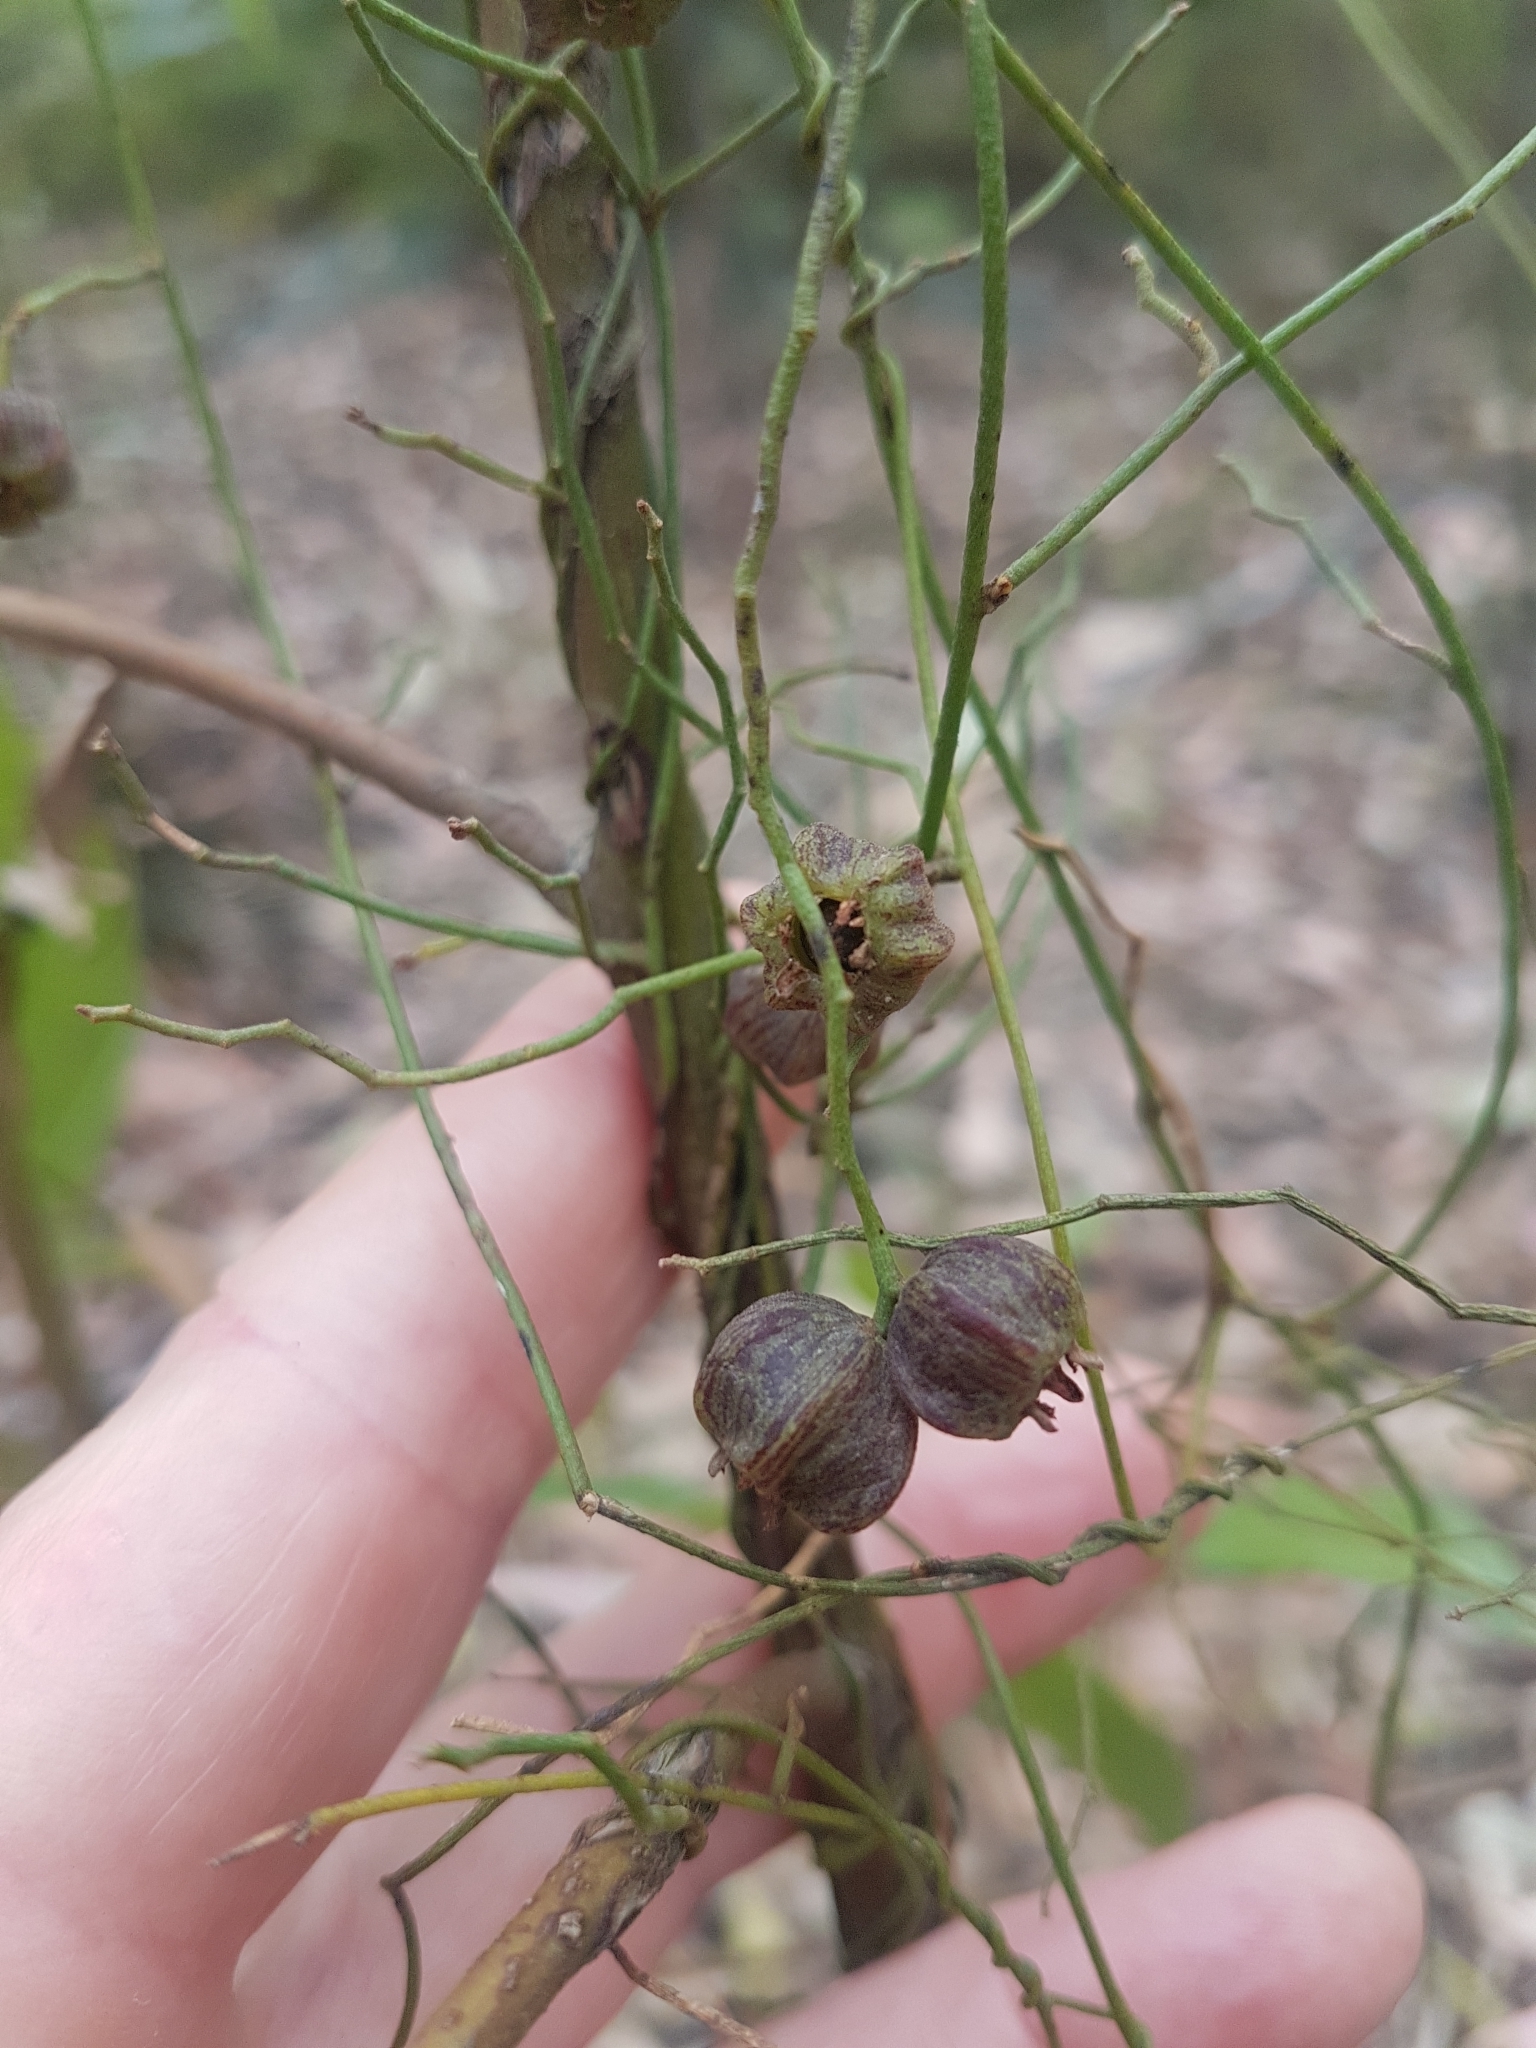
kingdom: Plantae
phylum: Tracheophyta
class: Magnoliopsida
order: Laurales
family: Lauraceae
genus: Cassytha
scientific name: Cassytha pubescens
